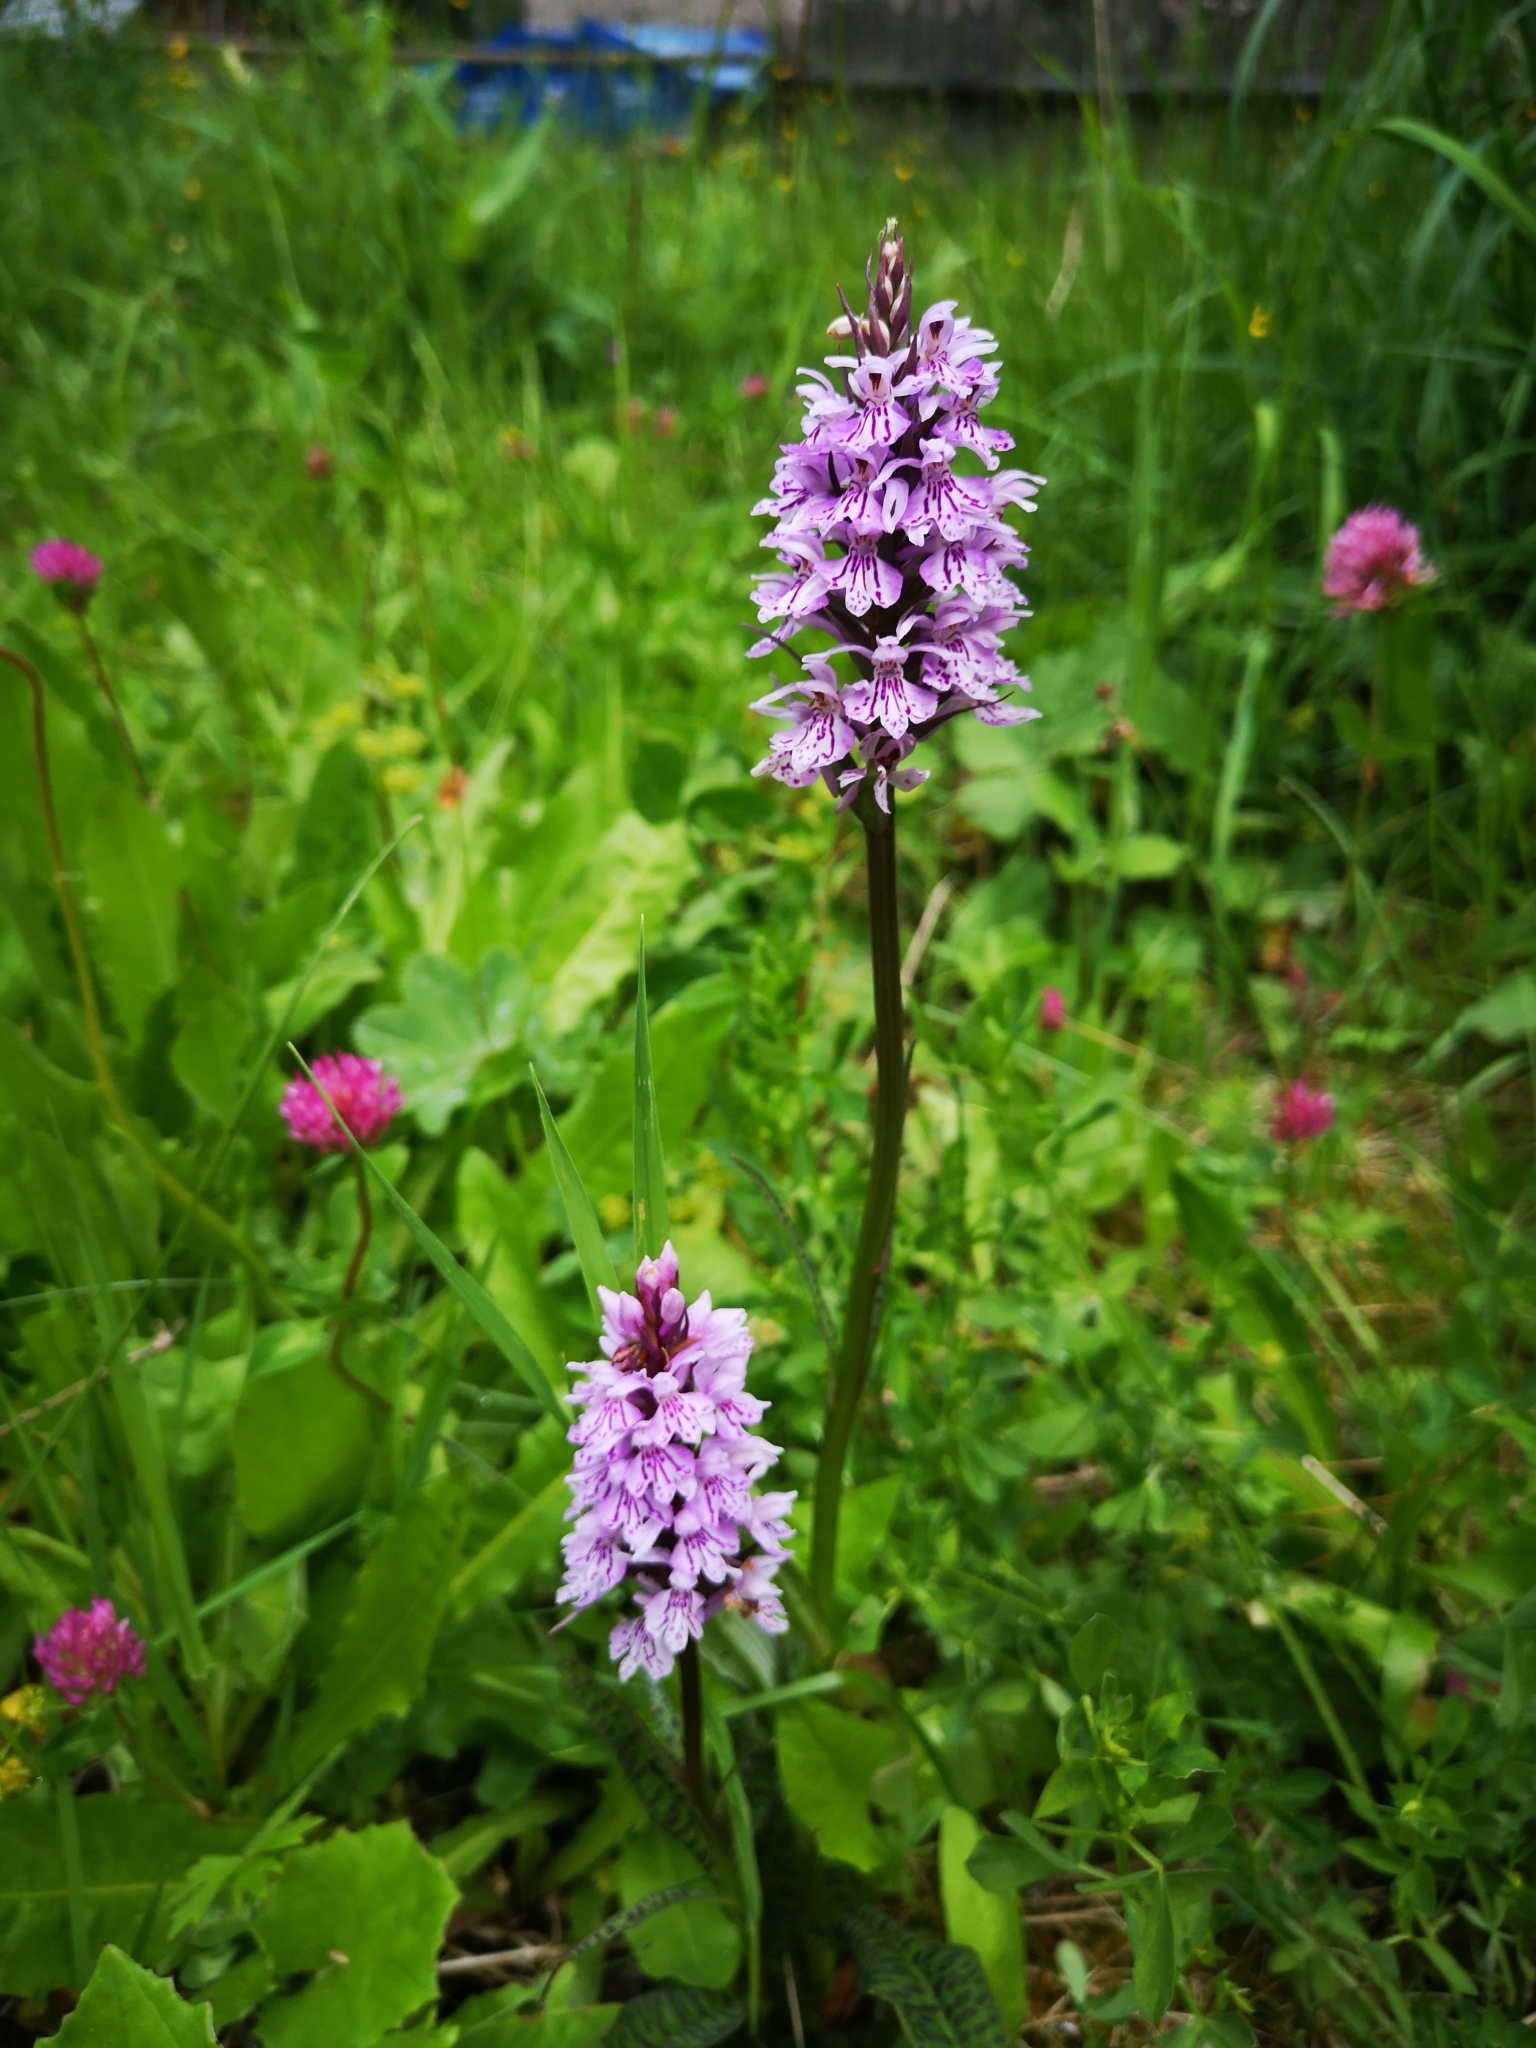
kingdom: Plantae
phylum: Tracheophyta
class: Liliopsida
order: Asparagales
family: Orchidaceae
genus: Dactylorhiza
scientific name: Dactylorhiza maculata
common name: Heath spotted-orchid
